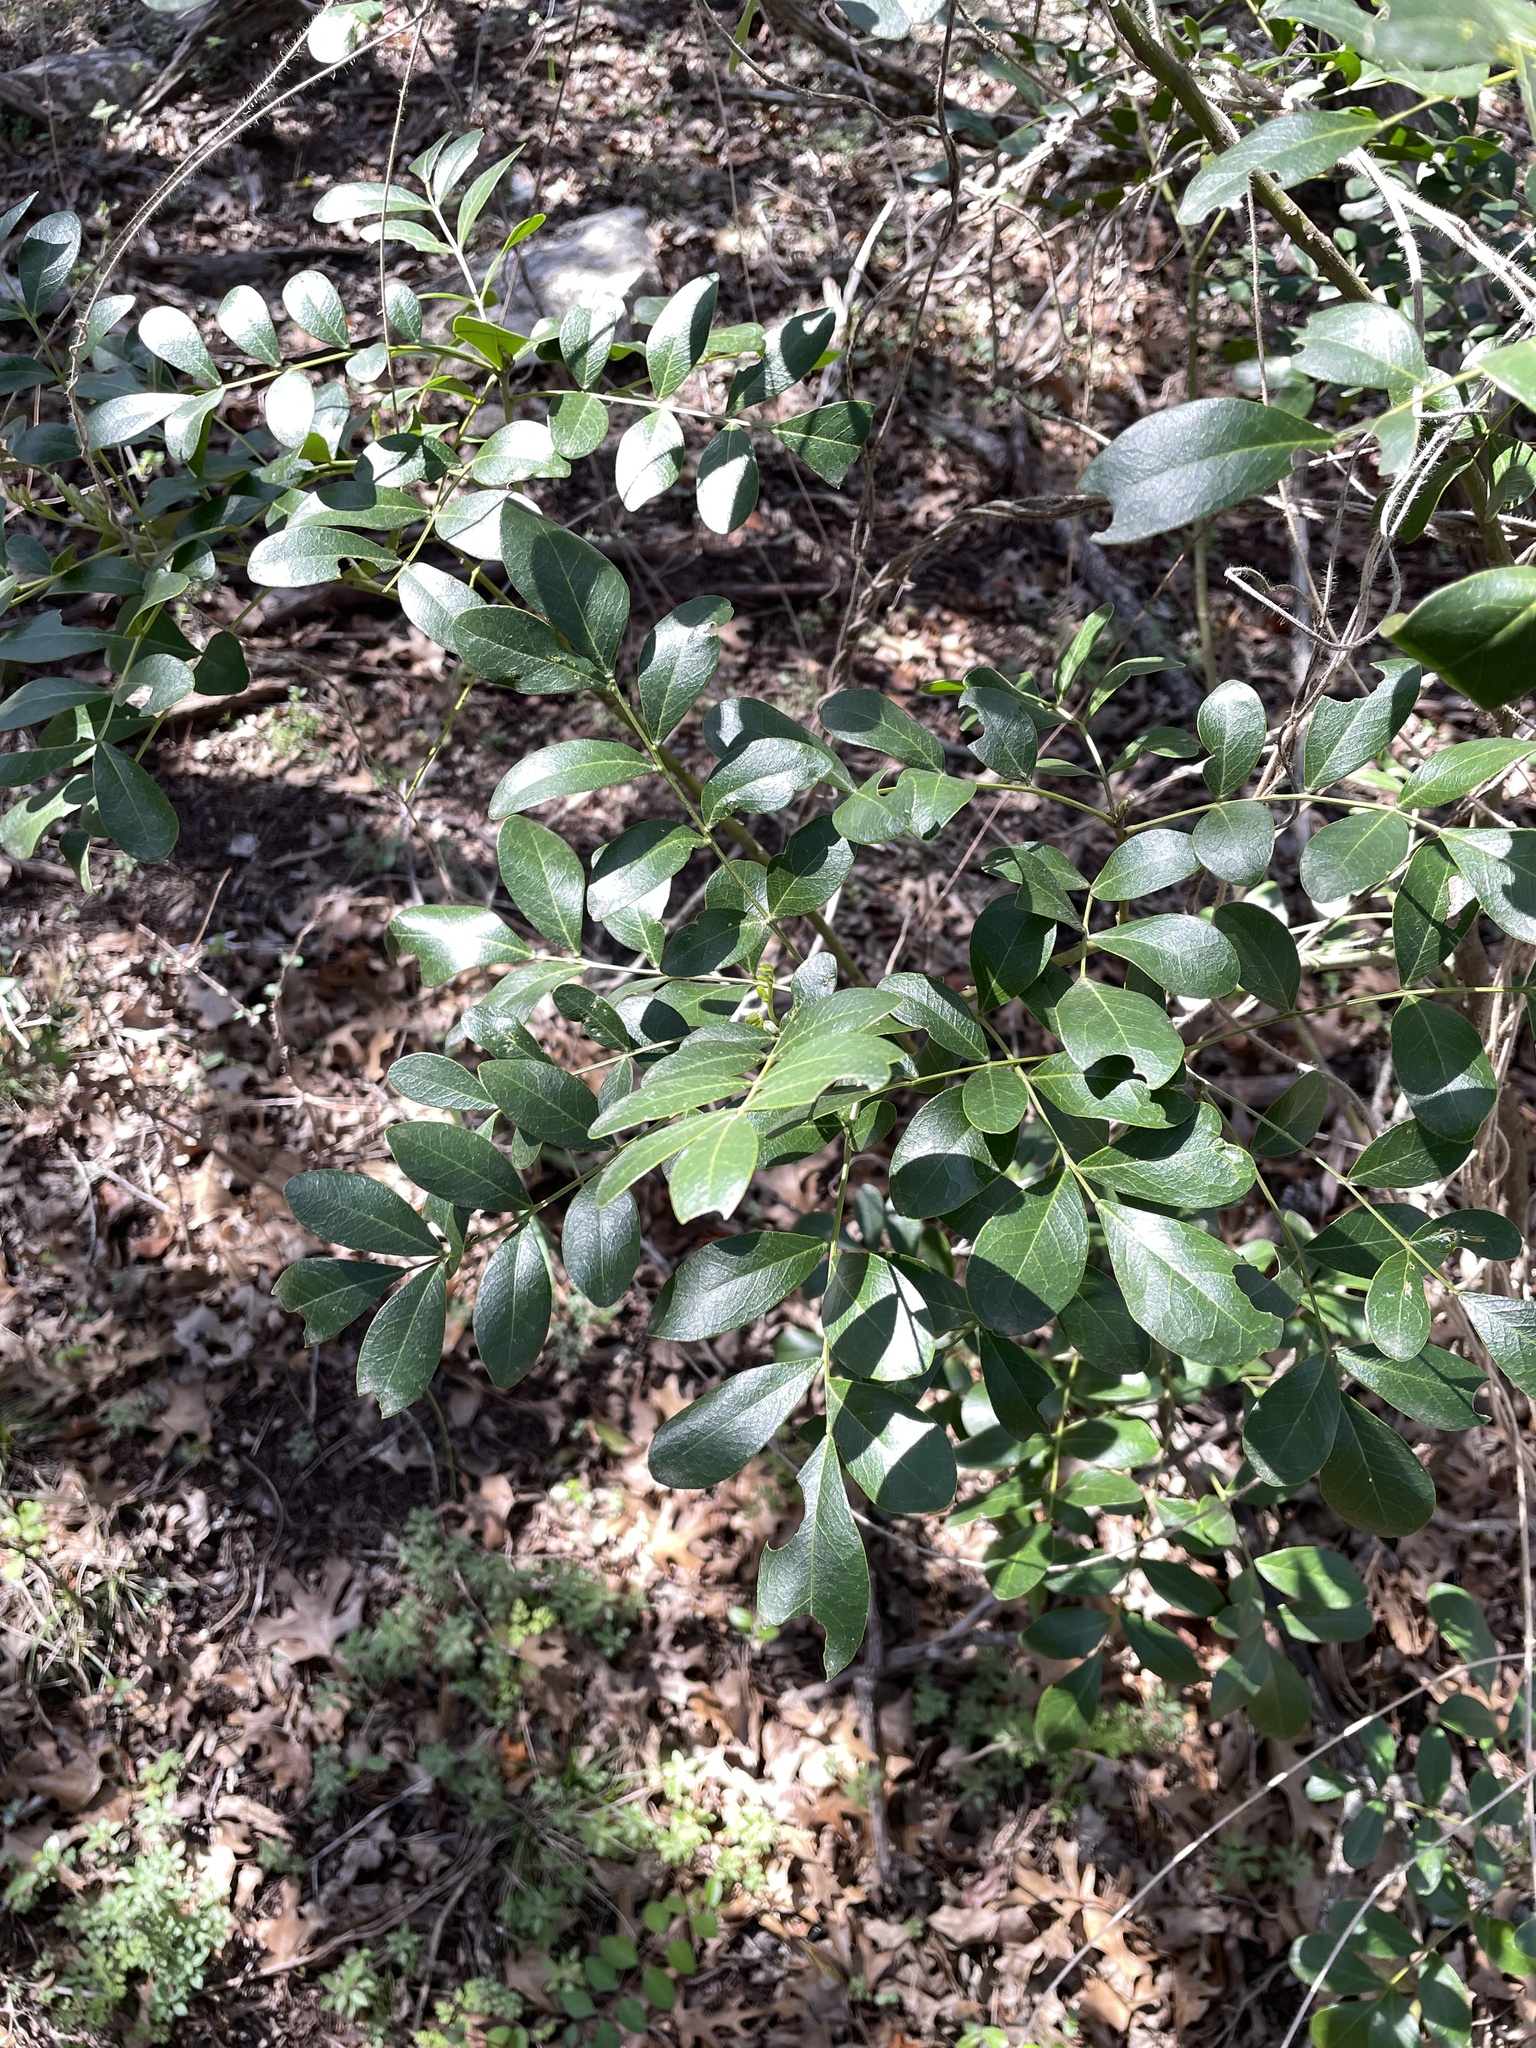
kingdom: Plantae
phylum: Tracheophyta
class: Magnoliopsida
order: Fabales
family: Fabaceae
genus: Dermatophyllum
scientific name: Dermatophyllum secundiflorum
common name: Texas-mountain-laurel
